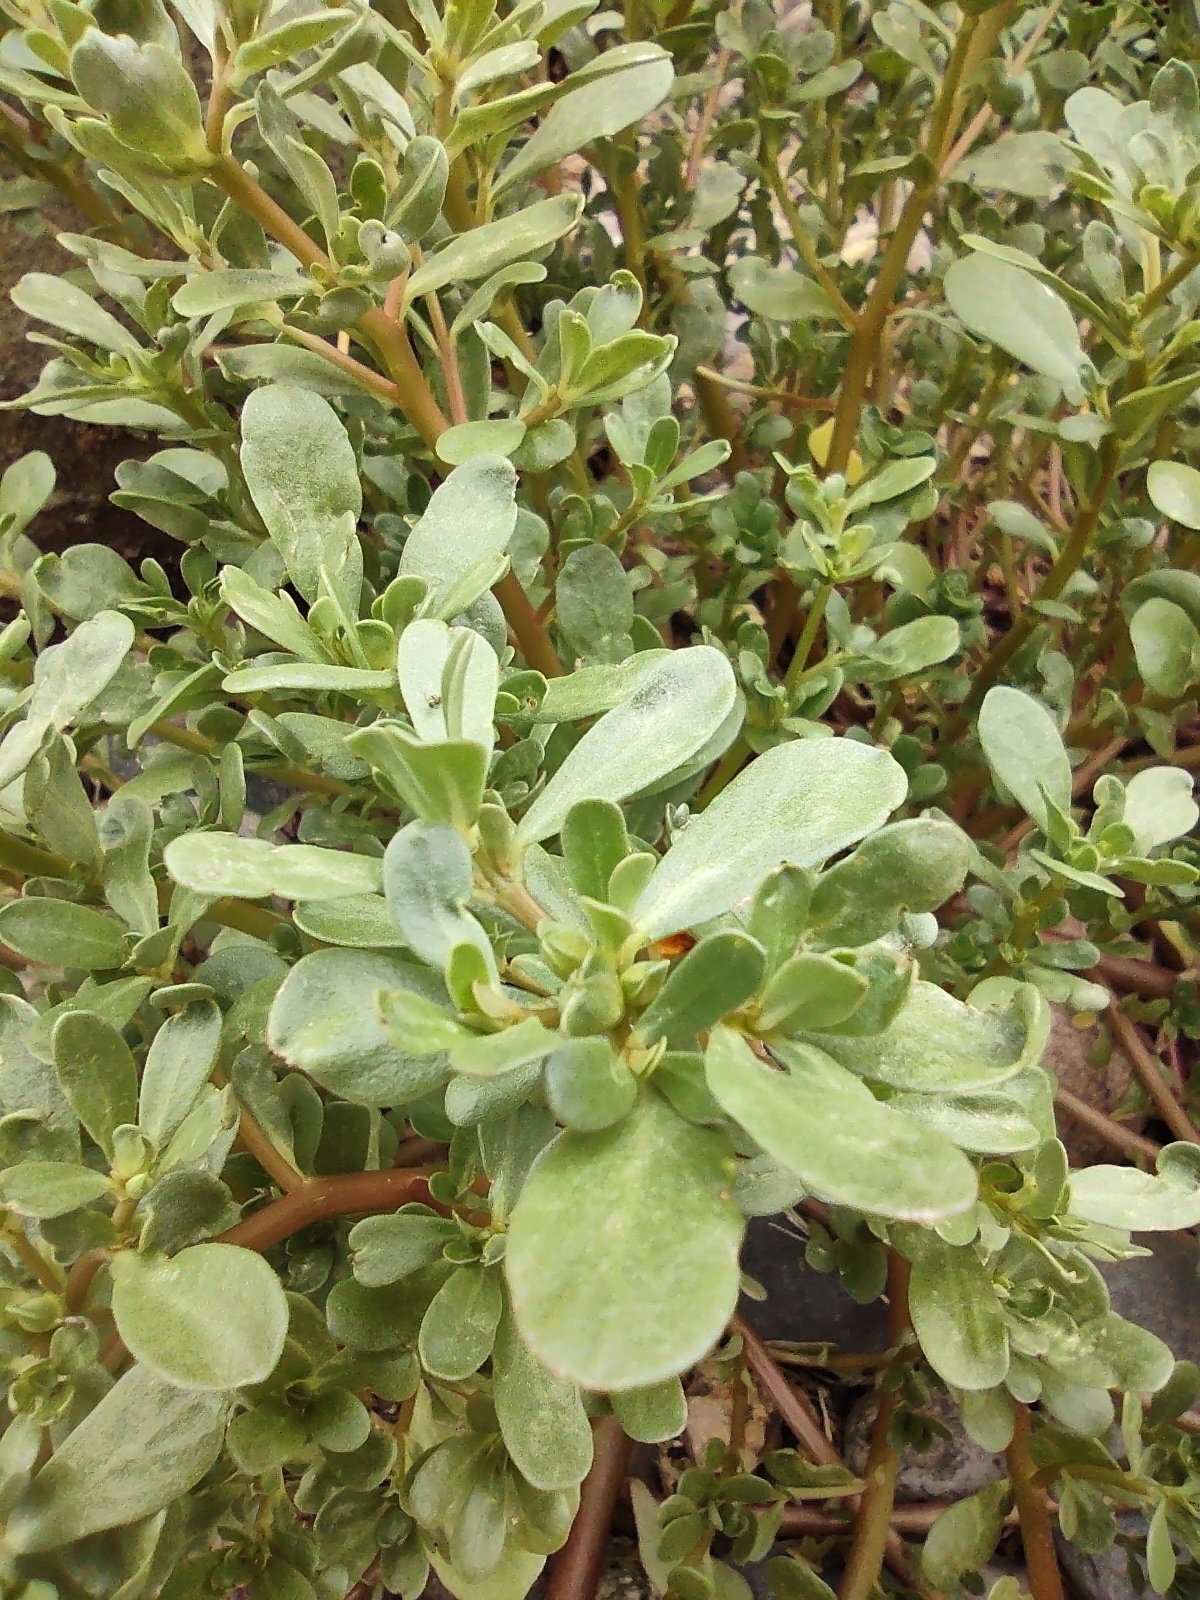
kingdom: Plantae
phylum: Tracheophyta
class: Magnoliopsida
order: Caryophyllales
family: Portulacaceae
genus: Portulaca
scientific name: Portulaca oleracea
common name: Common purslane
